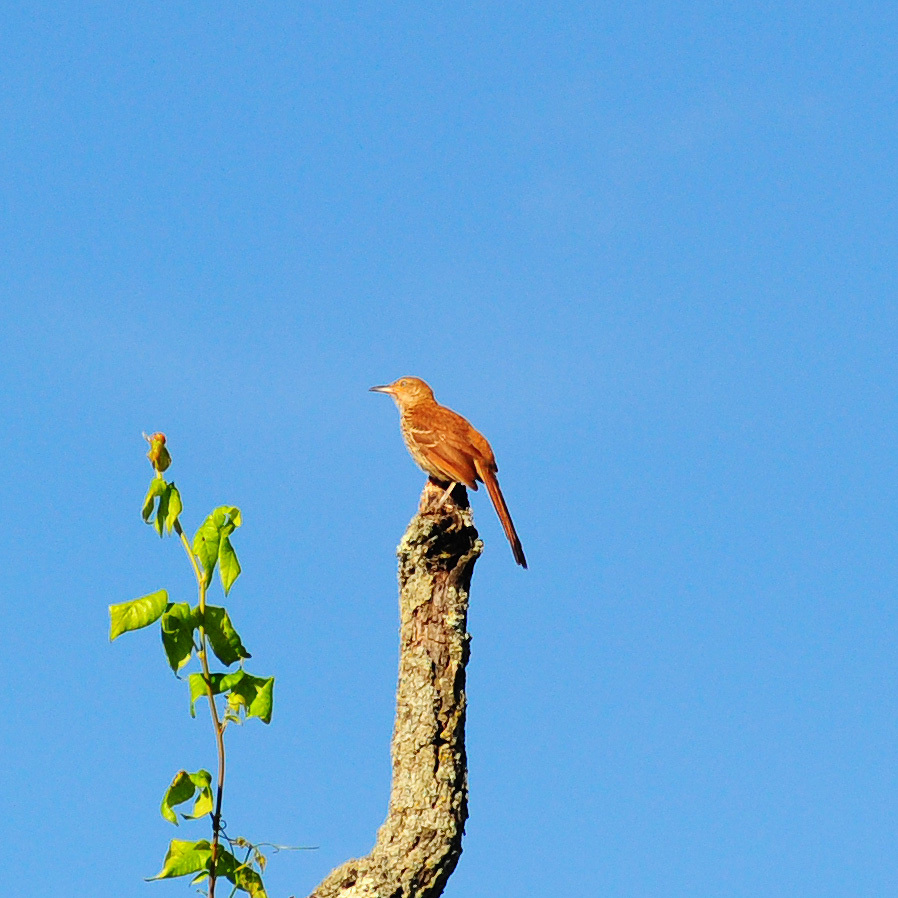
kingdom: Animalia
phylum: Chordata
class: Aves
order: Passeriformes
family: Mimidae
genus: Toxostoma
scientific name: Toxostoma rufum
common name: Brown thrasher
